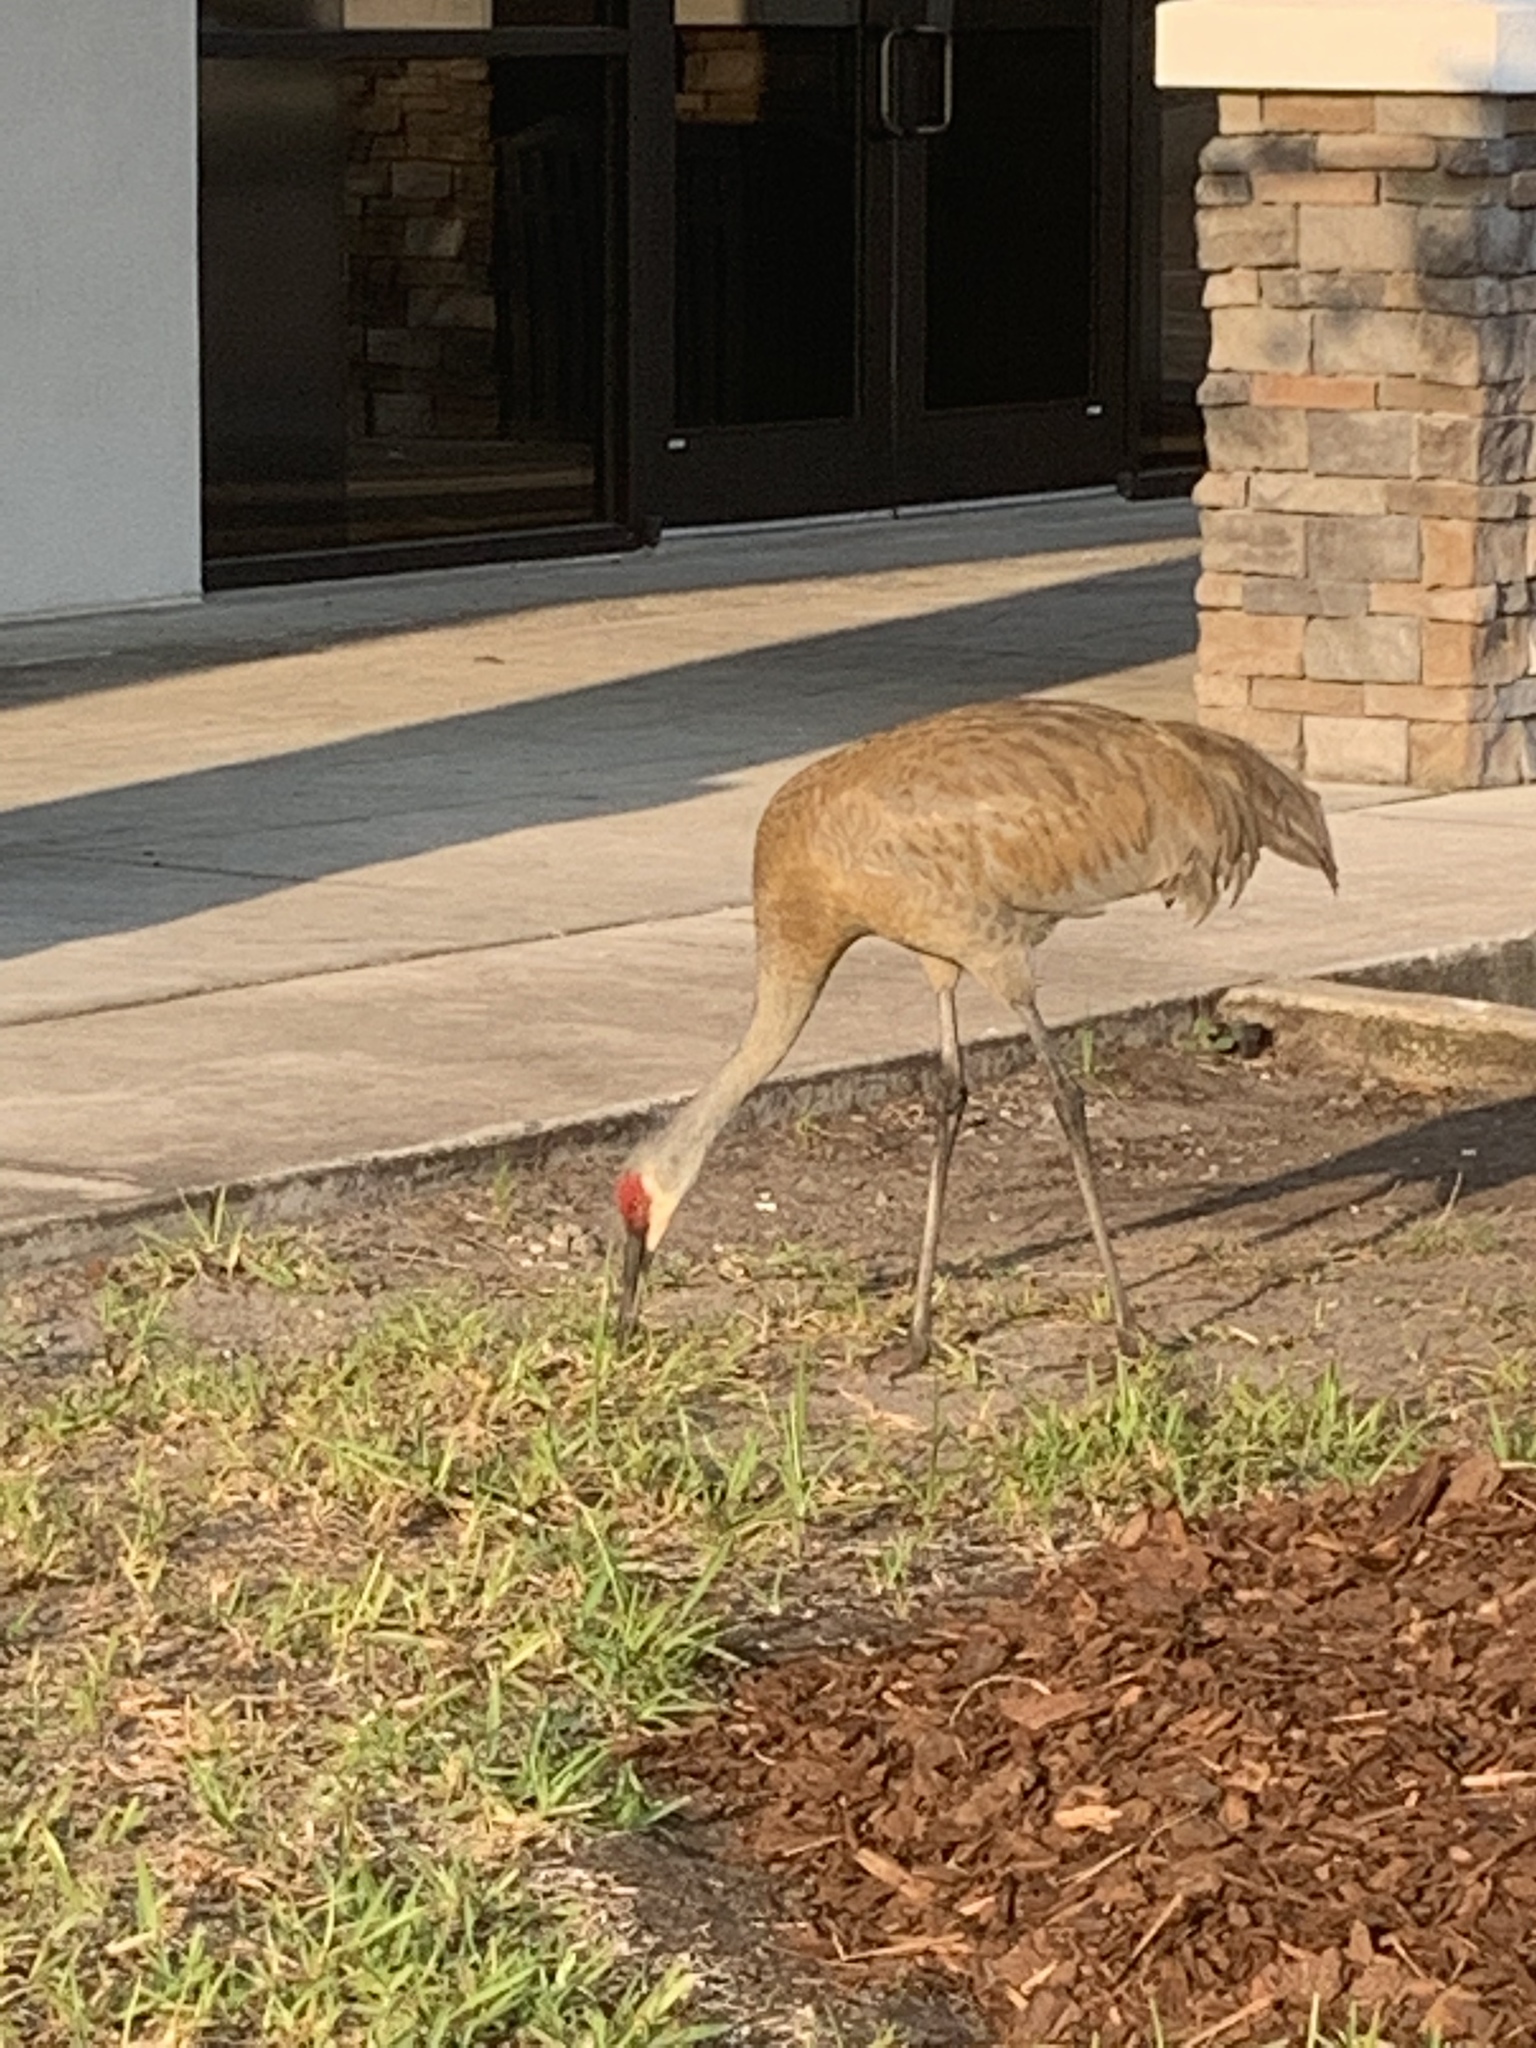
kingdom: Animalia
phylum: Chordata
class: Aves
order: Gruiformes
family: Gruidae
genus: Grus
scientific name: Grus canadensis
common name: Sandhill crane
